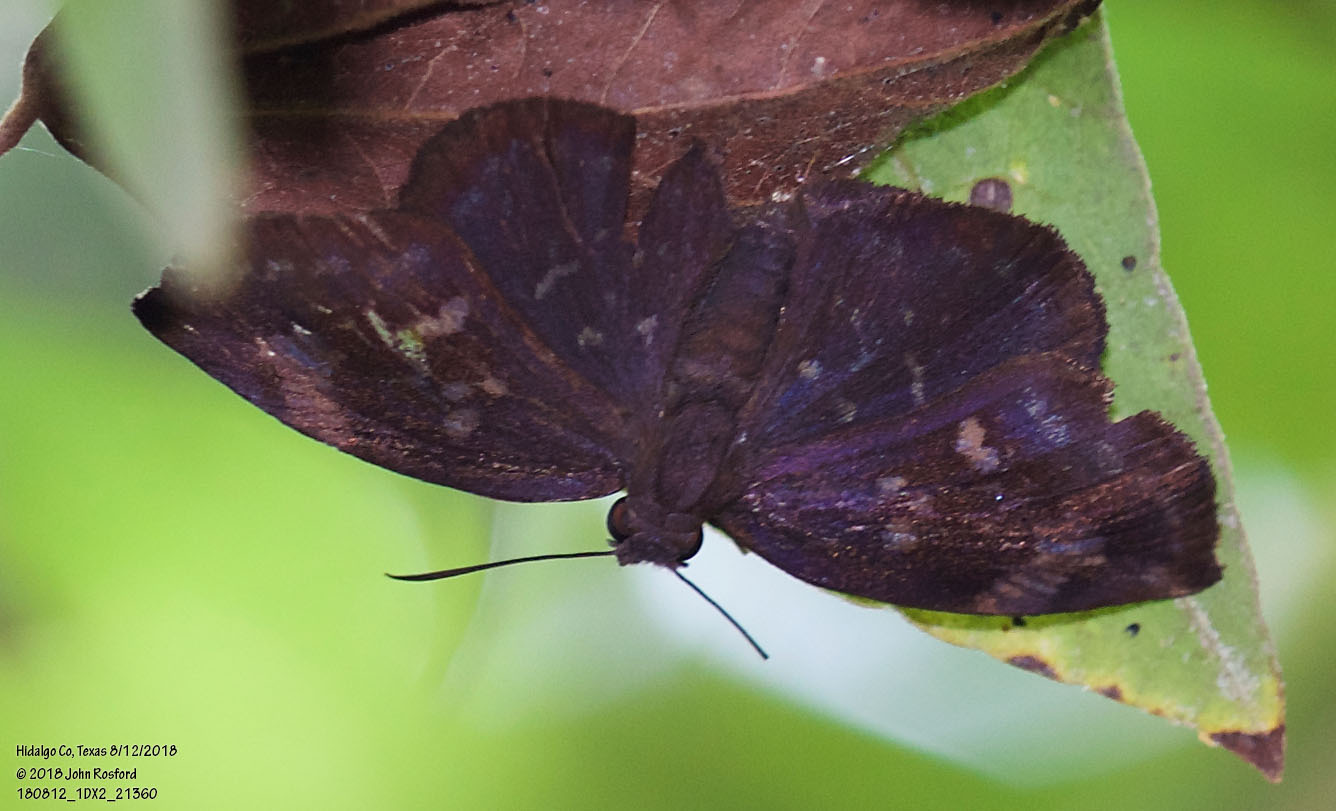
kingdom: Animalia
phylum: Arthropoda
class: Insecta
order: Lepidoptera
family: Hesperiidae
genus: Achlyodes
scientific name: Achlyodes thraso
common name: Sickle-winged skipper
